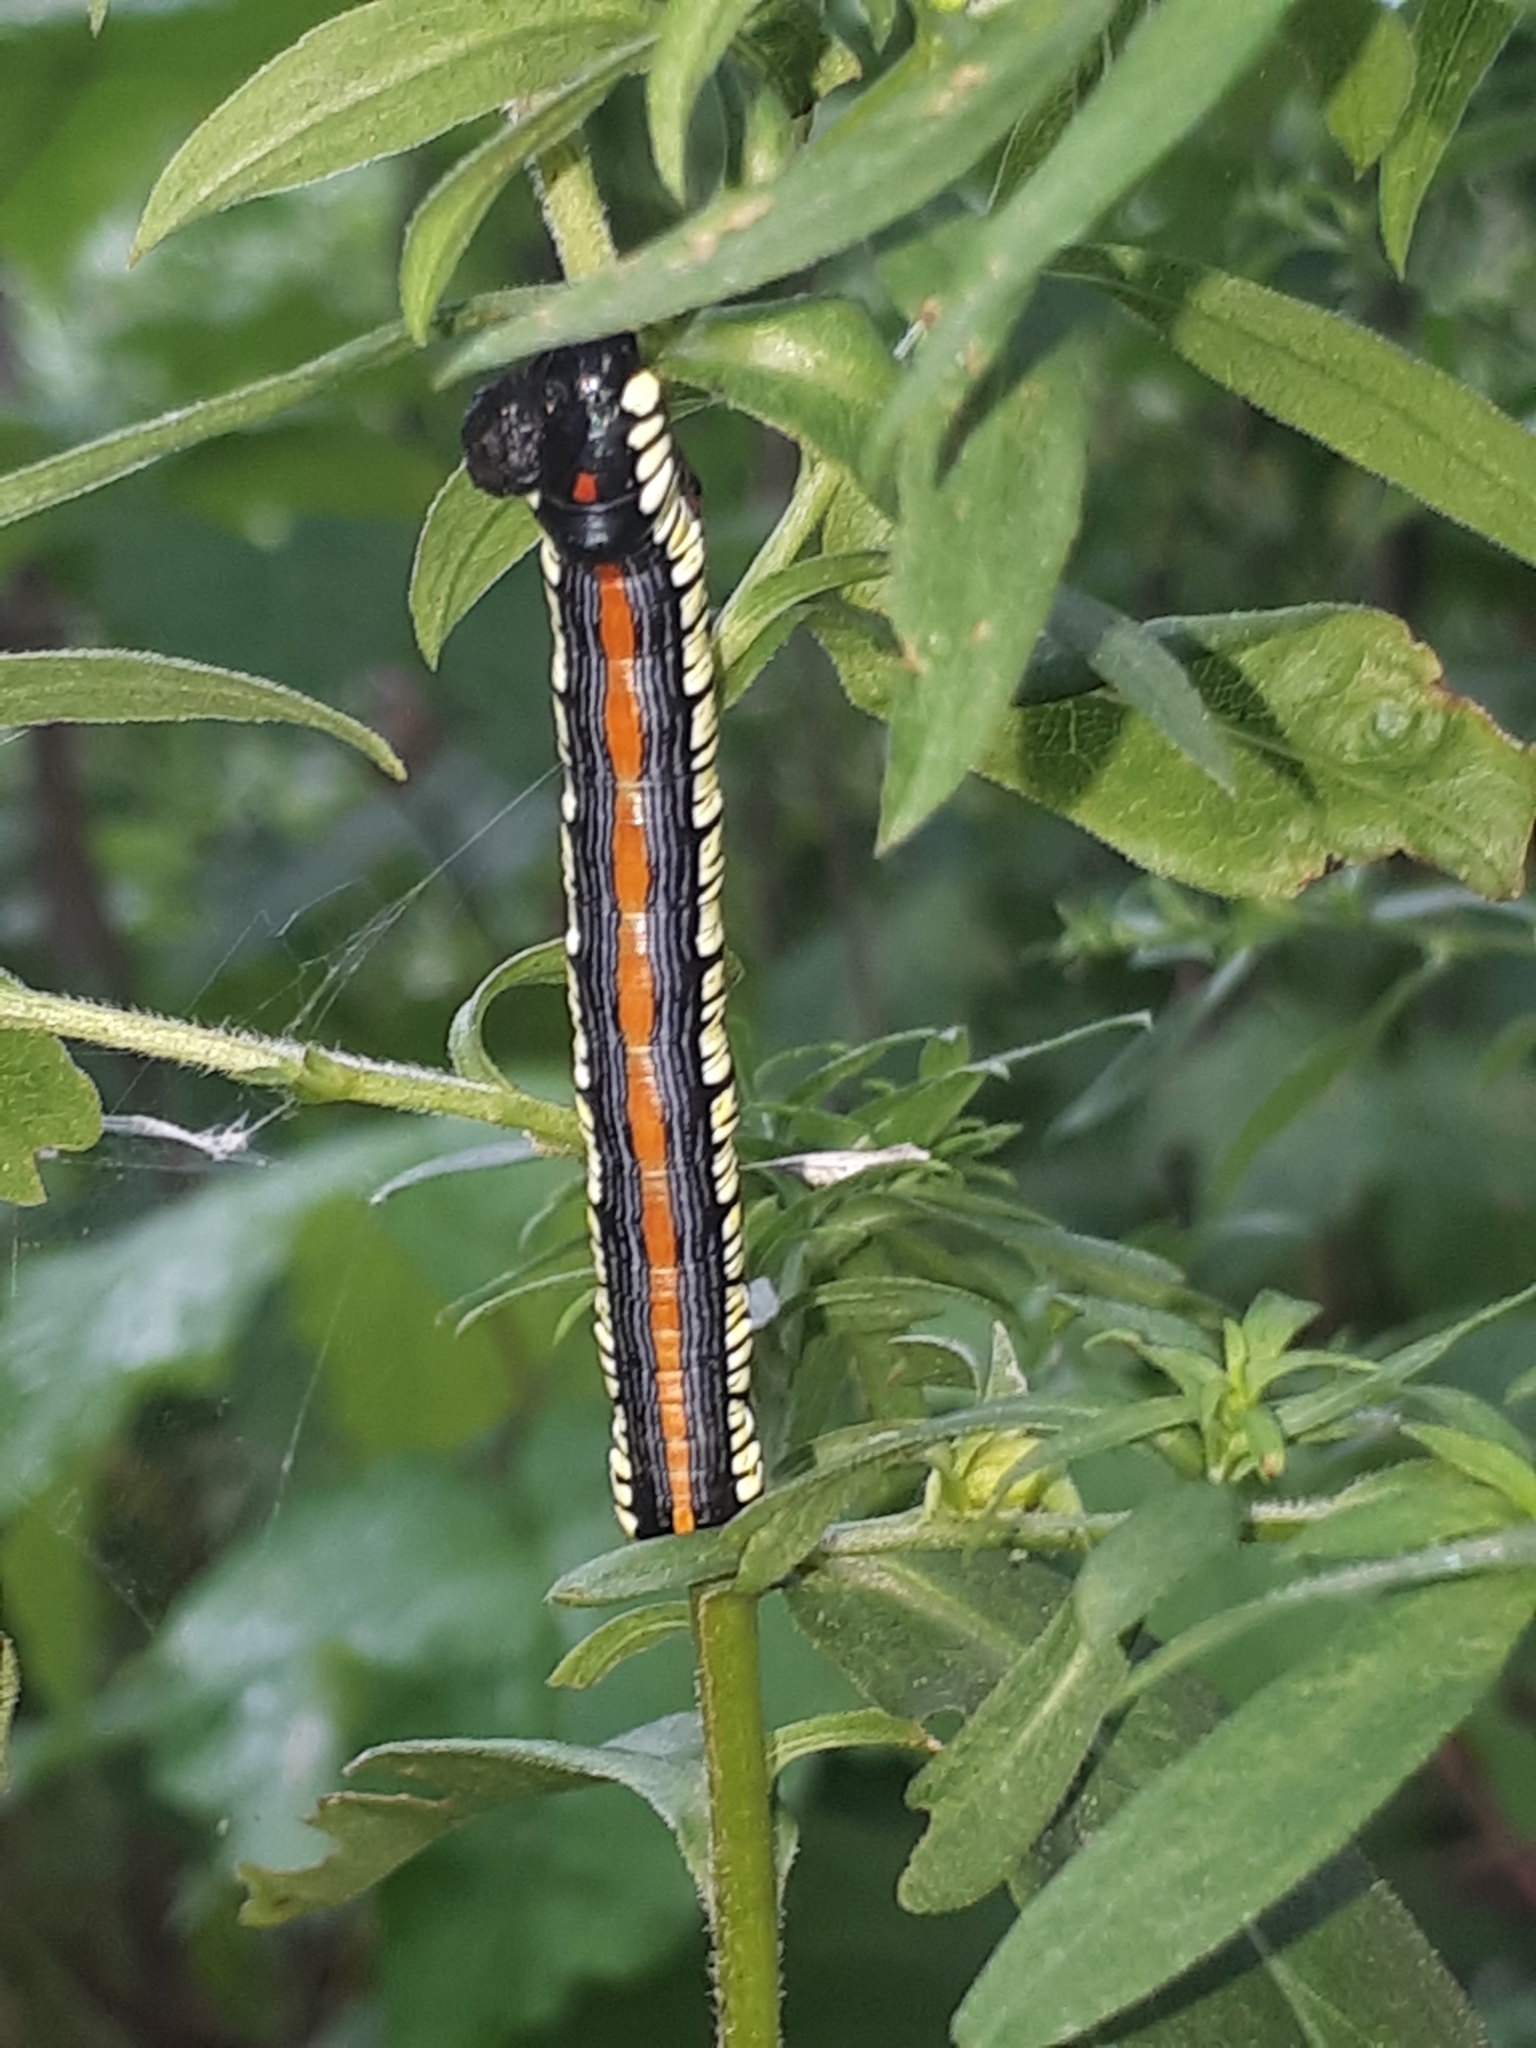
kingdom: Animalia
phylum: Arthropoda
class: Insecta
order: Lepidoptera
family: Noctuidae
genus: Cucullia
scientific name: Cucullia convexipennis
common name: Brown-hooded owlet
